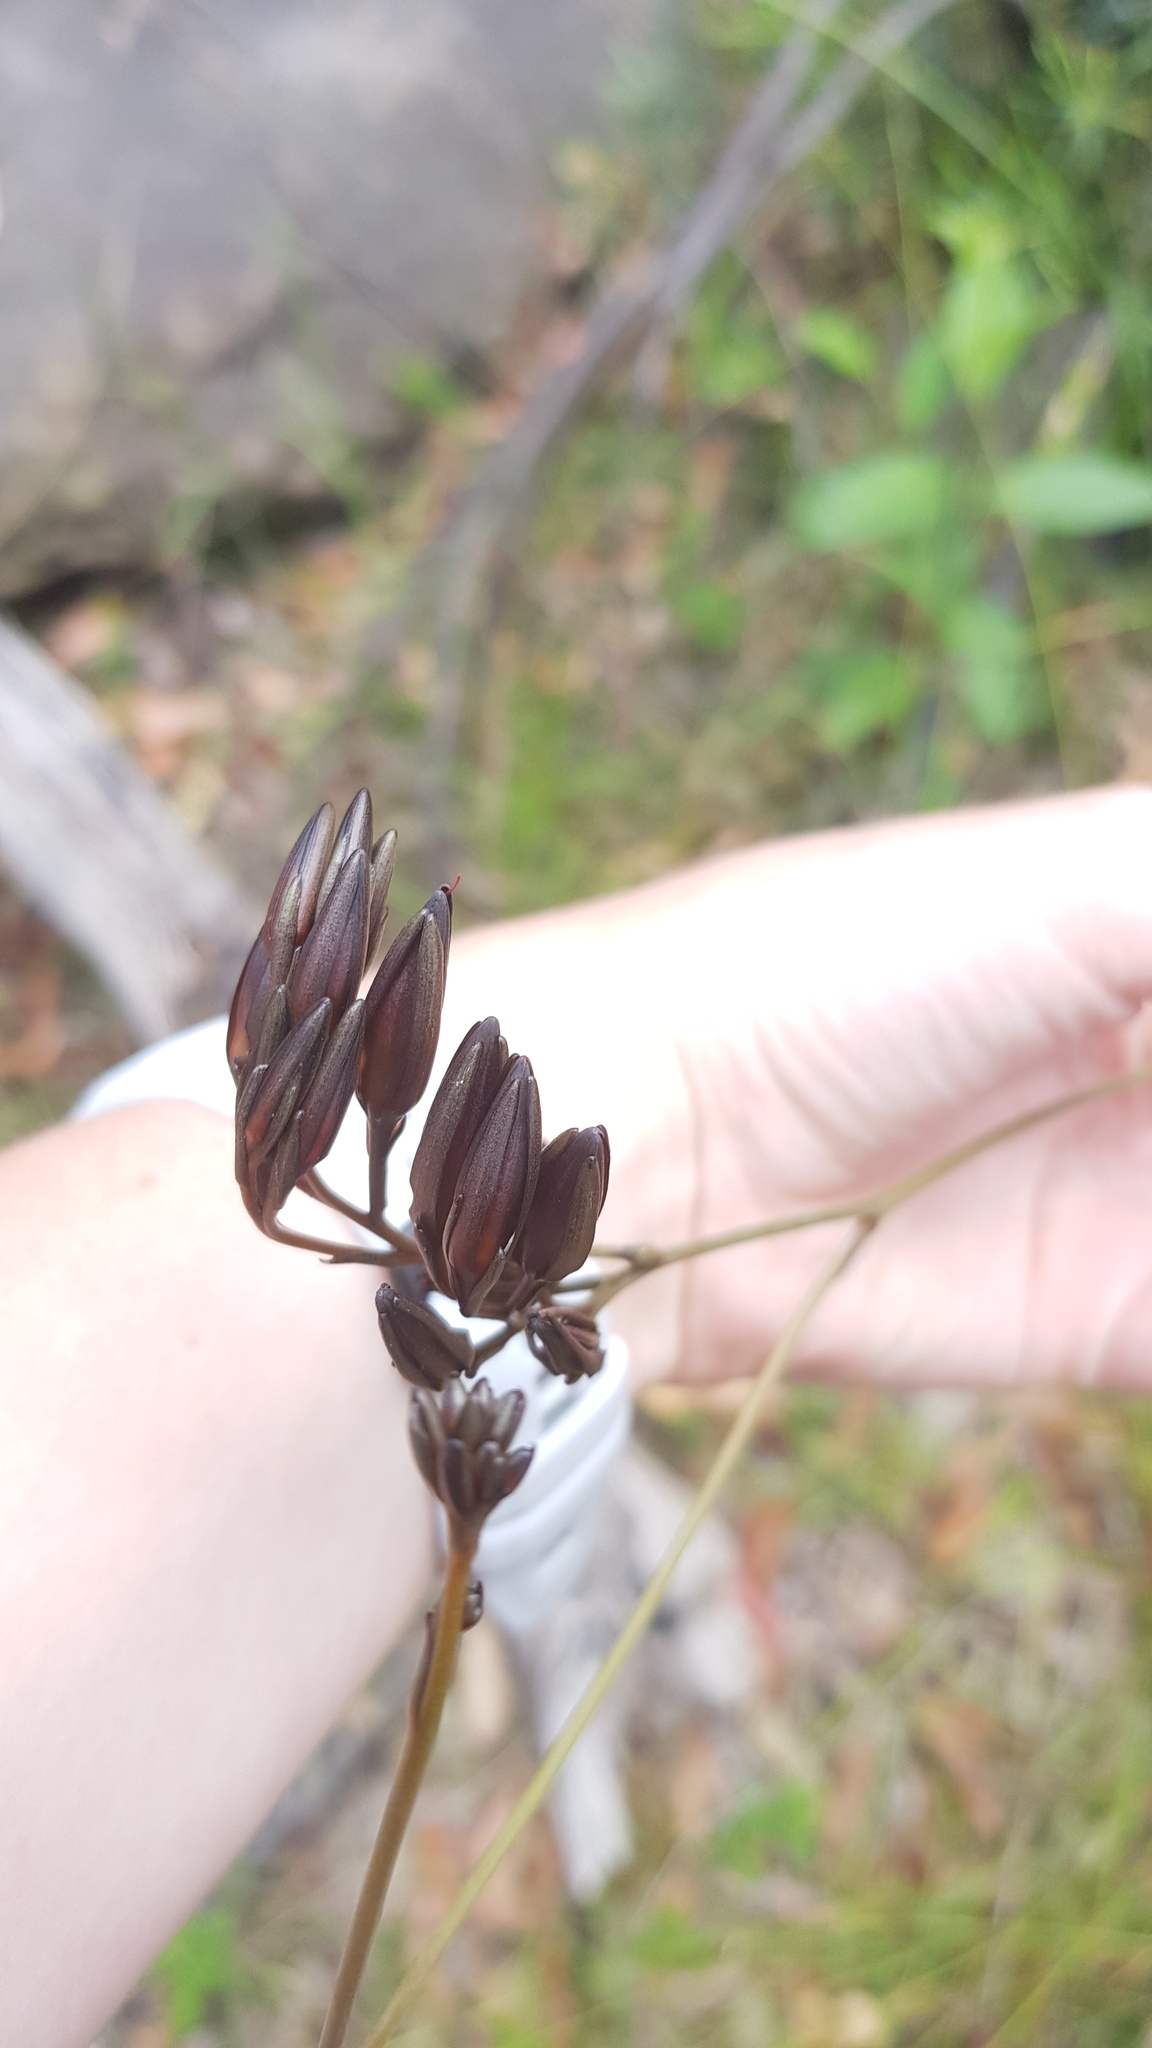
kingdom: Plantae
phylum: Tracheophyta
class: Liliopsida
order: Commelinales
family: Haemodoraceae
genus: Haemodorum
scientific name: Haemodorum planifolium
